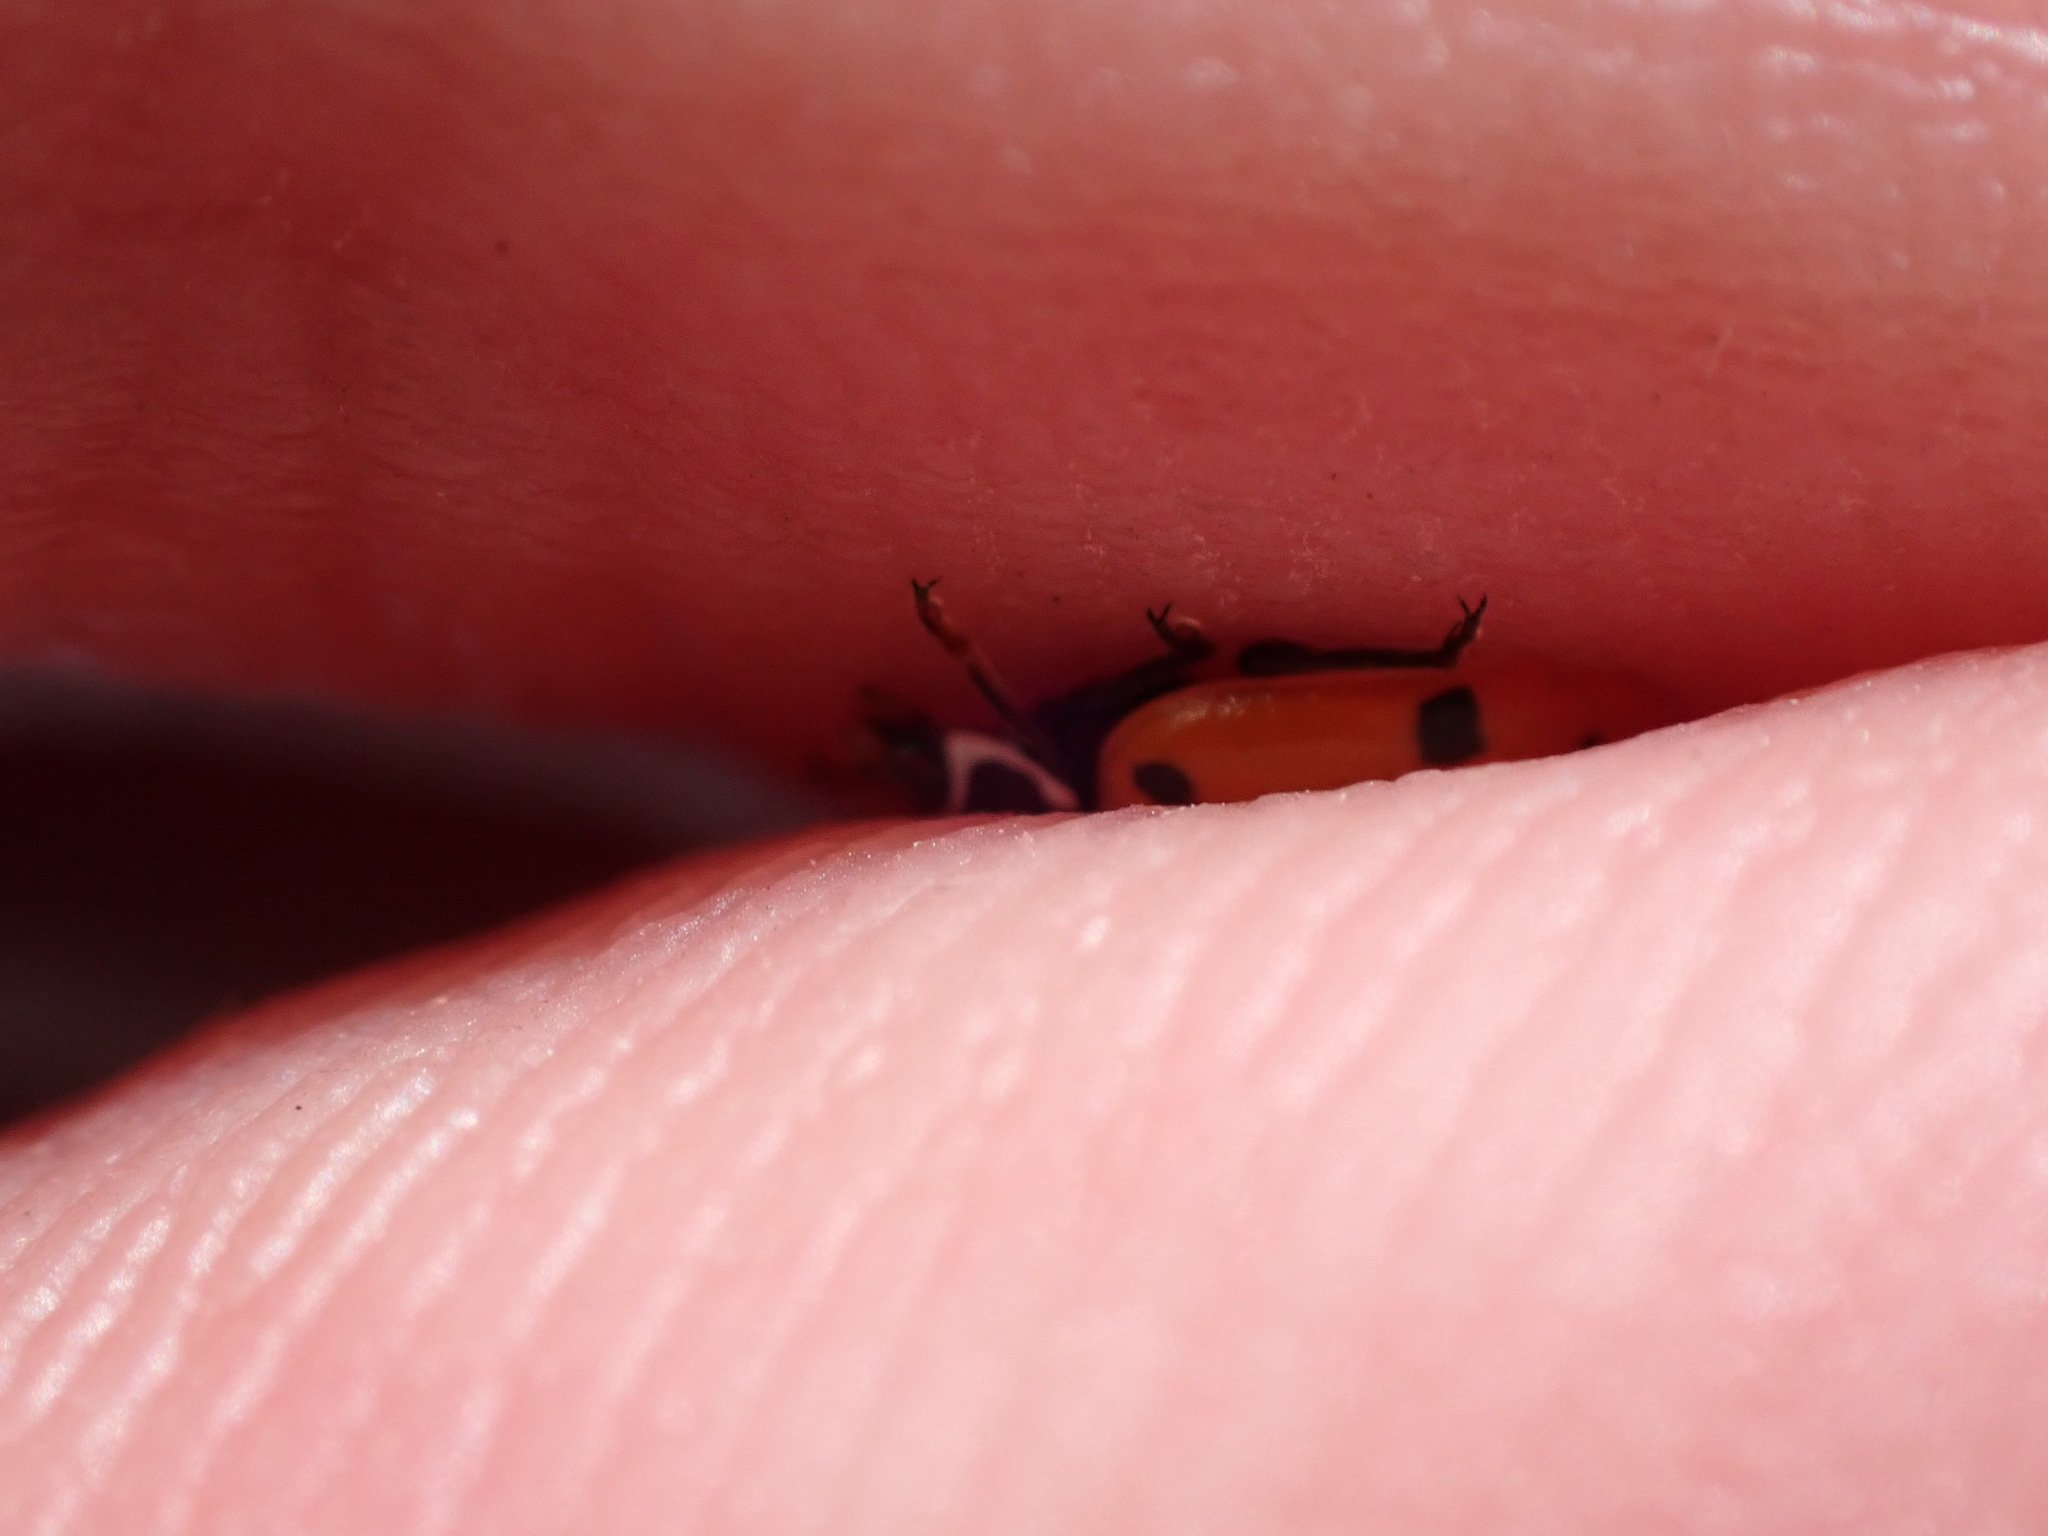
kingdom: Animalia
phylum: Arthropoda
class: Insecta
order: Coleoptera
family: Coccinellidae
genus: Hippodamia
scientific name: Hippodamia variegata
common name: Ladybird beetle
